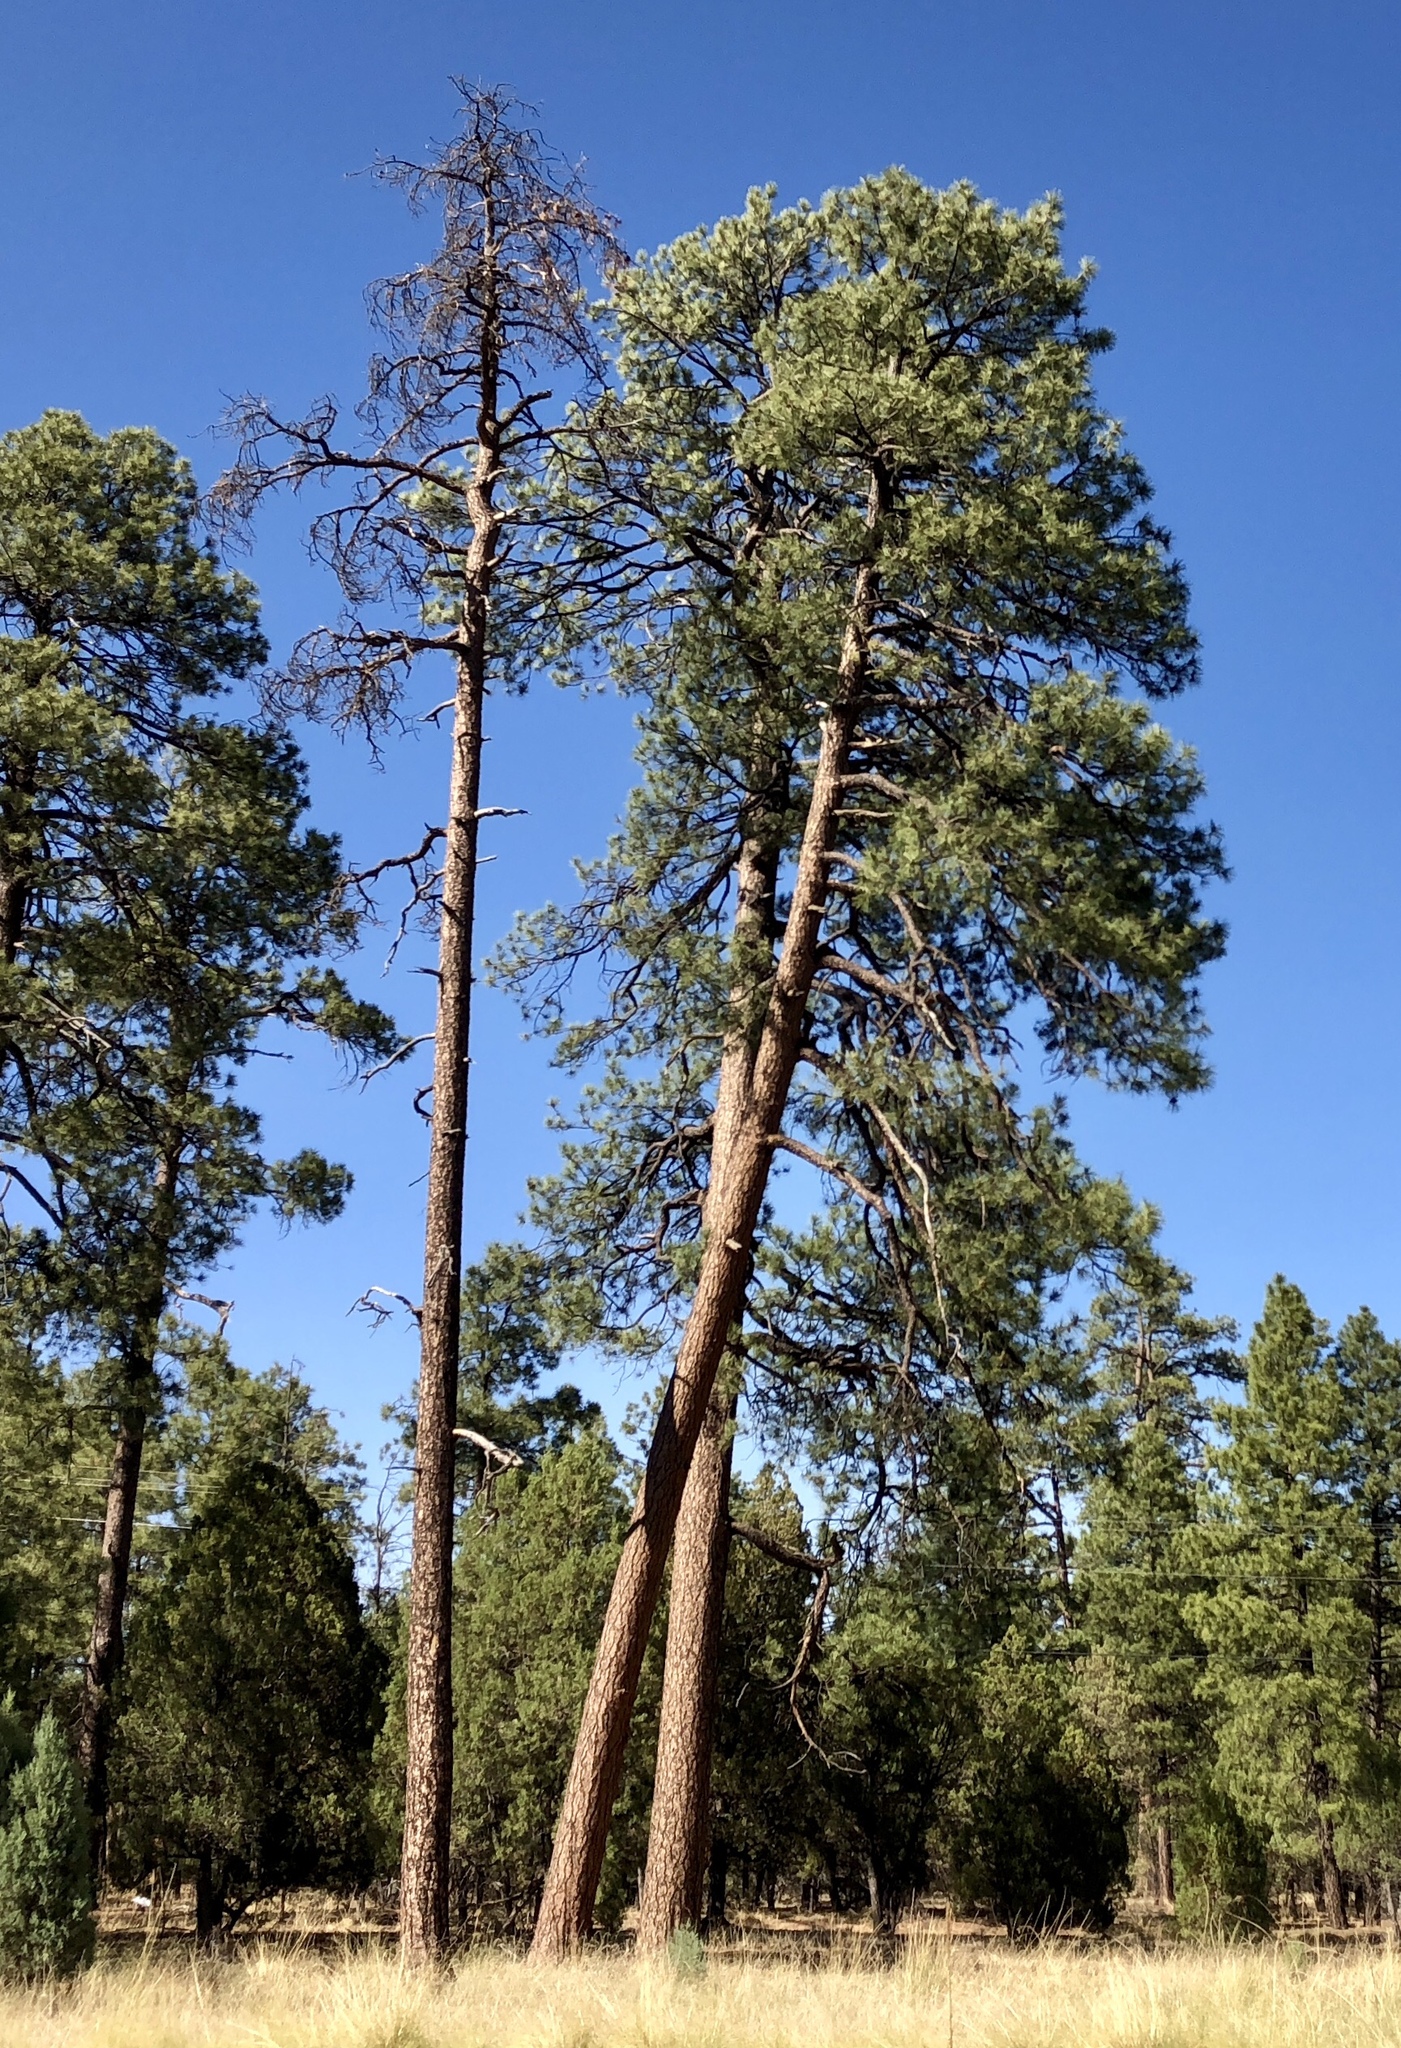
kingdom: Plantae
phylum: Tracheophyta
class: Pinopsida
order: Pinales
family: Pinaceae
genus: Pinus
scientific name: Pinus ponderosa
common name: Western yellow-pine
